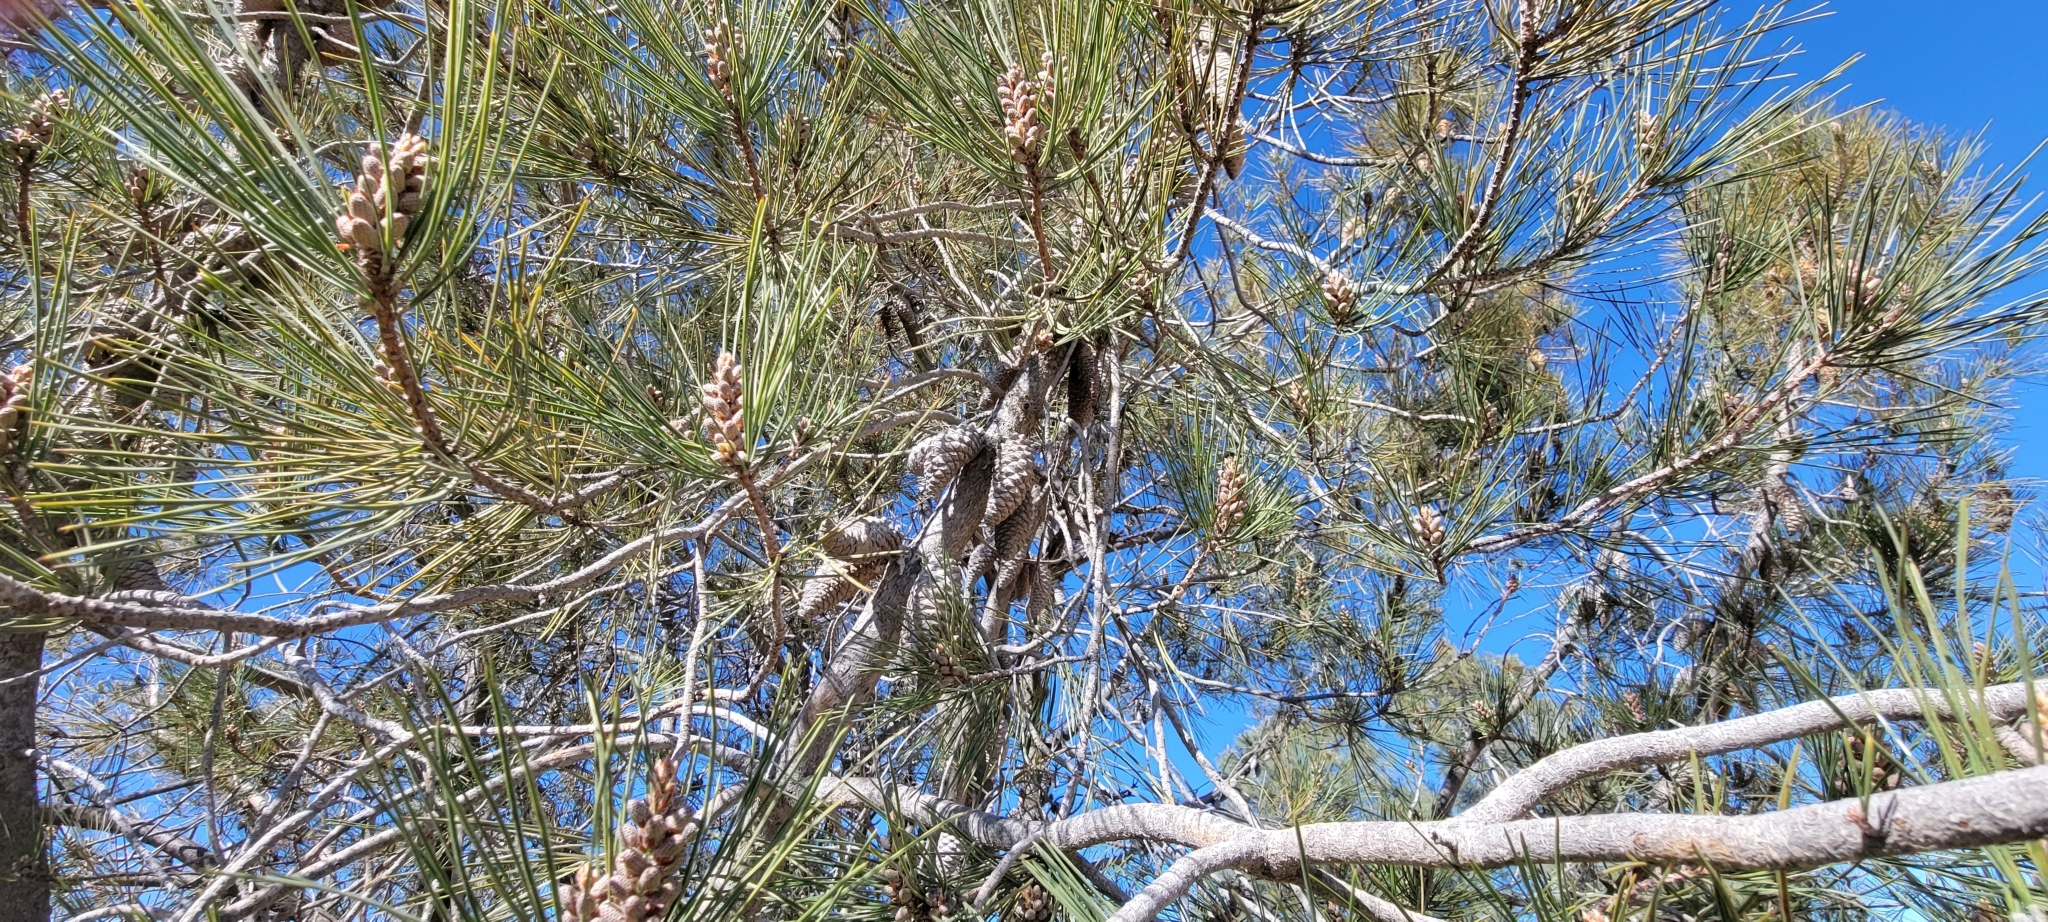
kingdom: Plantae
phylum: Tracheophyta
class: Pinopsida
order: Pinales
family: Pinaceae
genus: Pinus
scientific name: Pinus attenuata
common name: Knobcone pine
